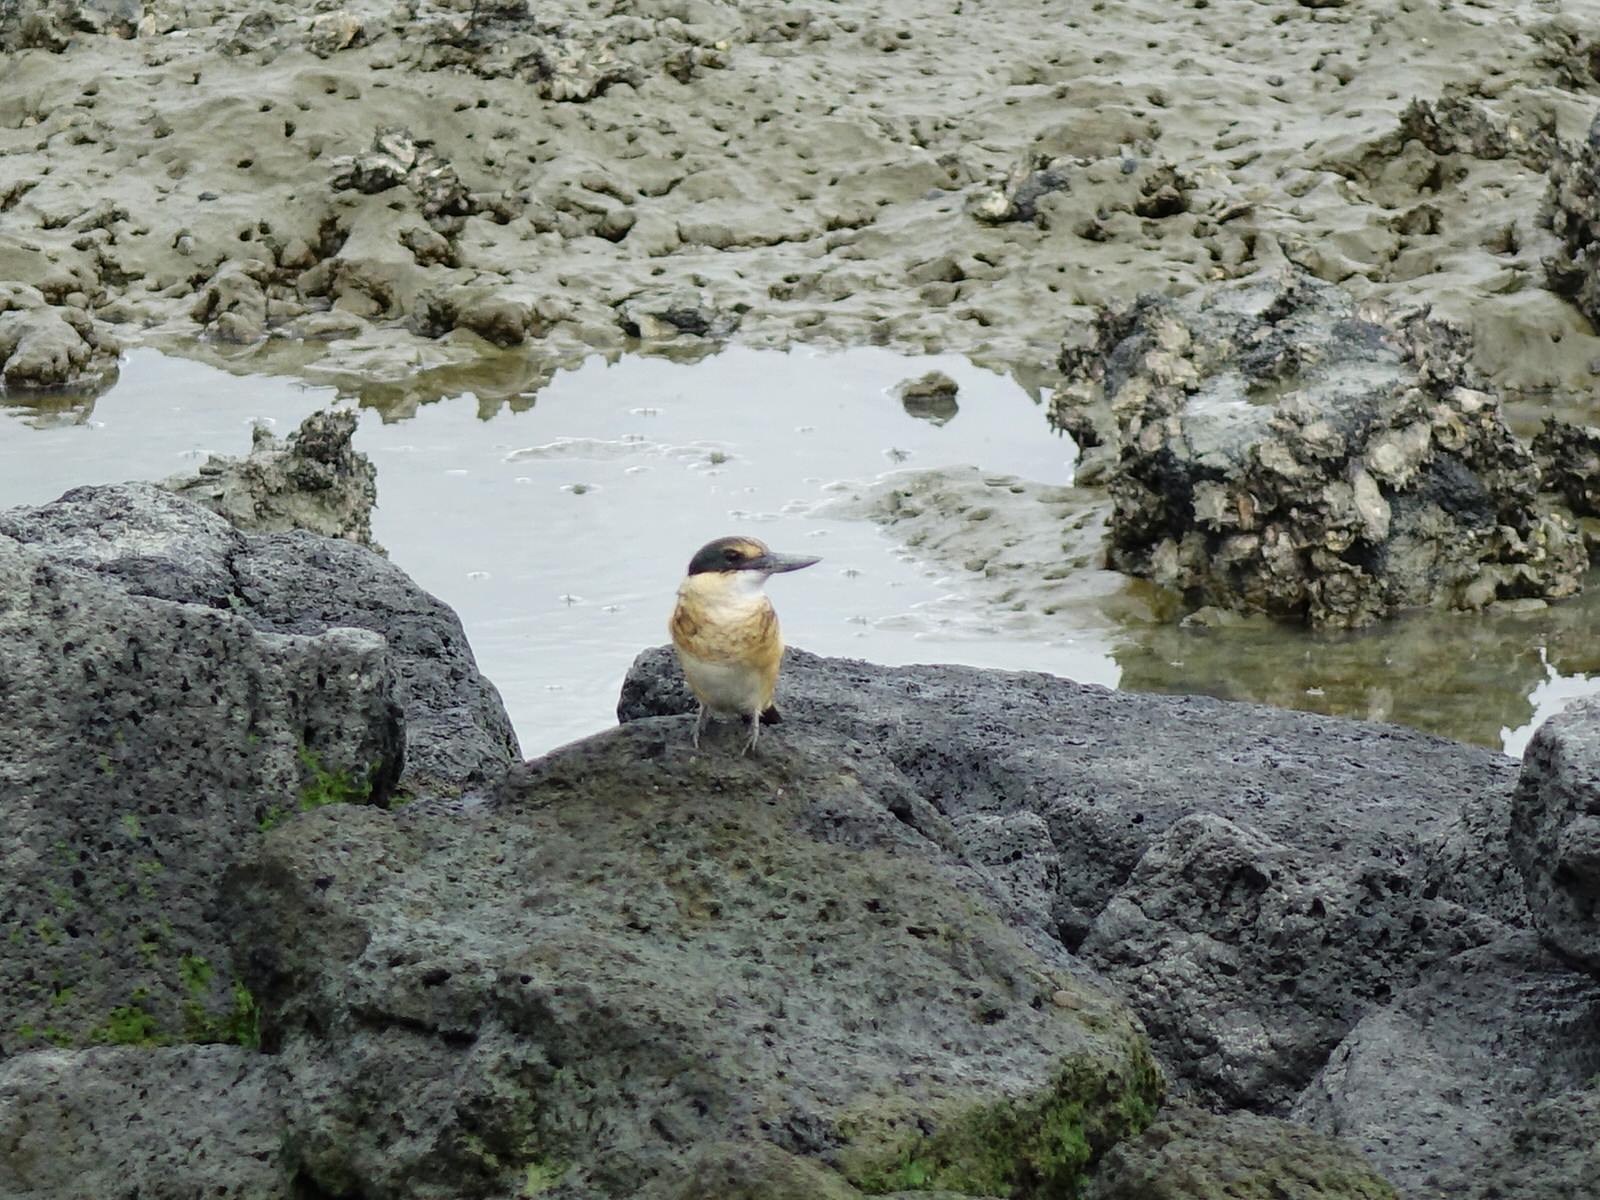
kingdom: Animalia
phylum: Chordata
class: Aves
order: Coraciiformes
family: Alcedinidae
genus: Todiramphus
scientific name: Todiramphus sanctus
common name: Sacred kingfisher
